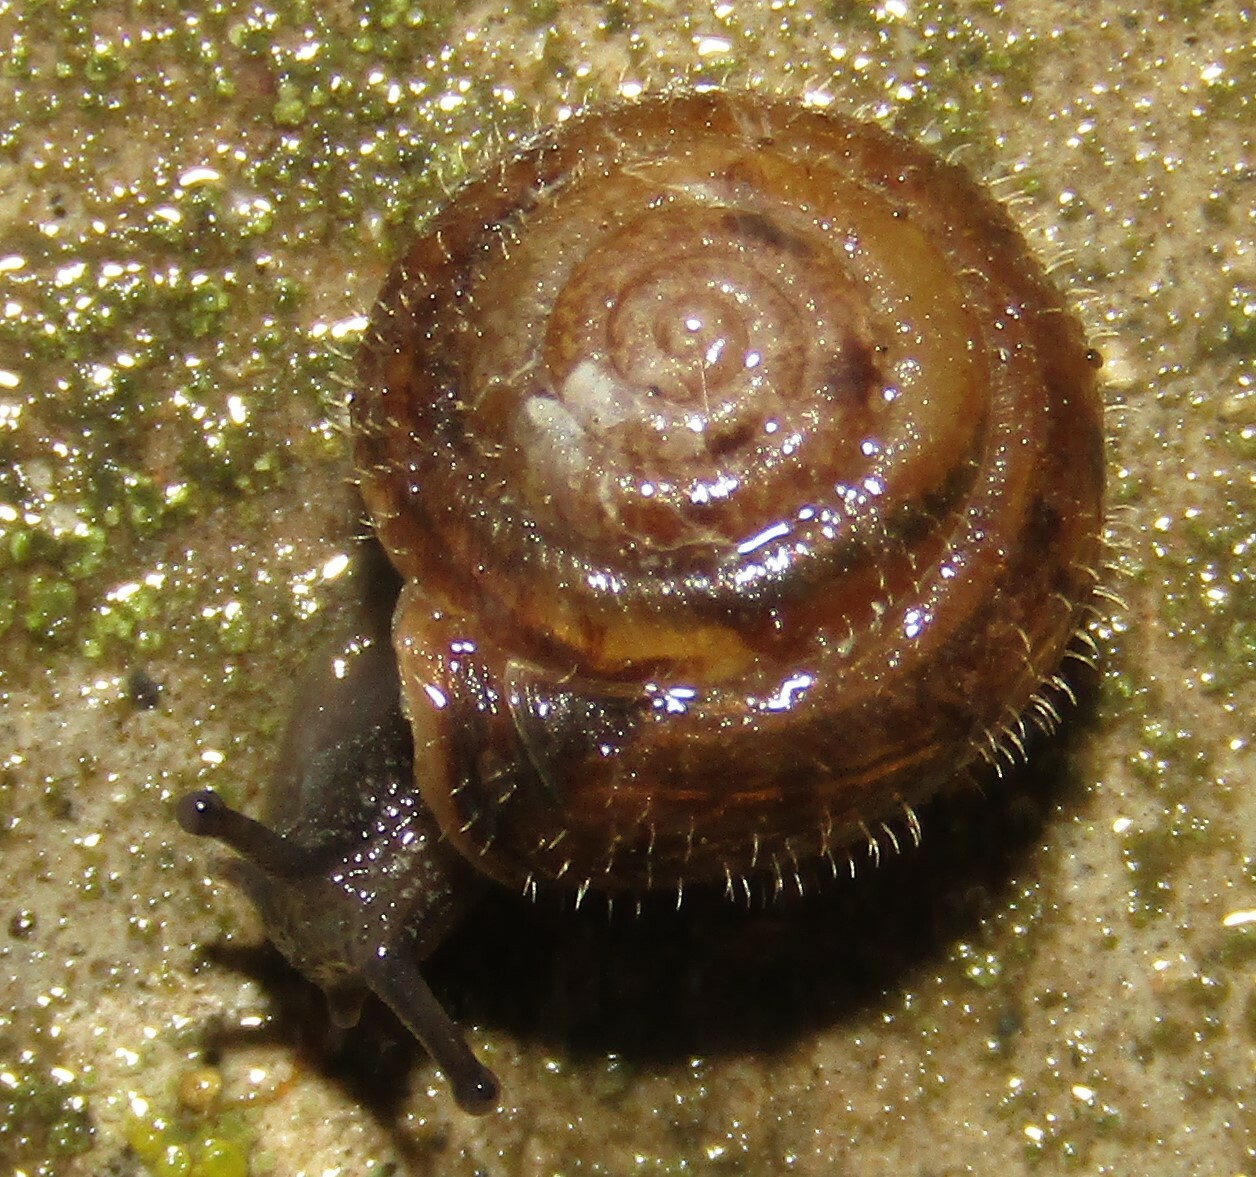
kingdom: Animalia
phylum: Mollusca
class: Gastropoda
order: Stylommatophora
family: Hygromiidae
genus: Trochulus
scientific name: Trochulus hispidus
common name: Hairy snail
